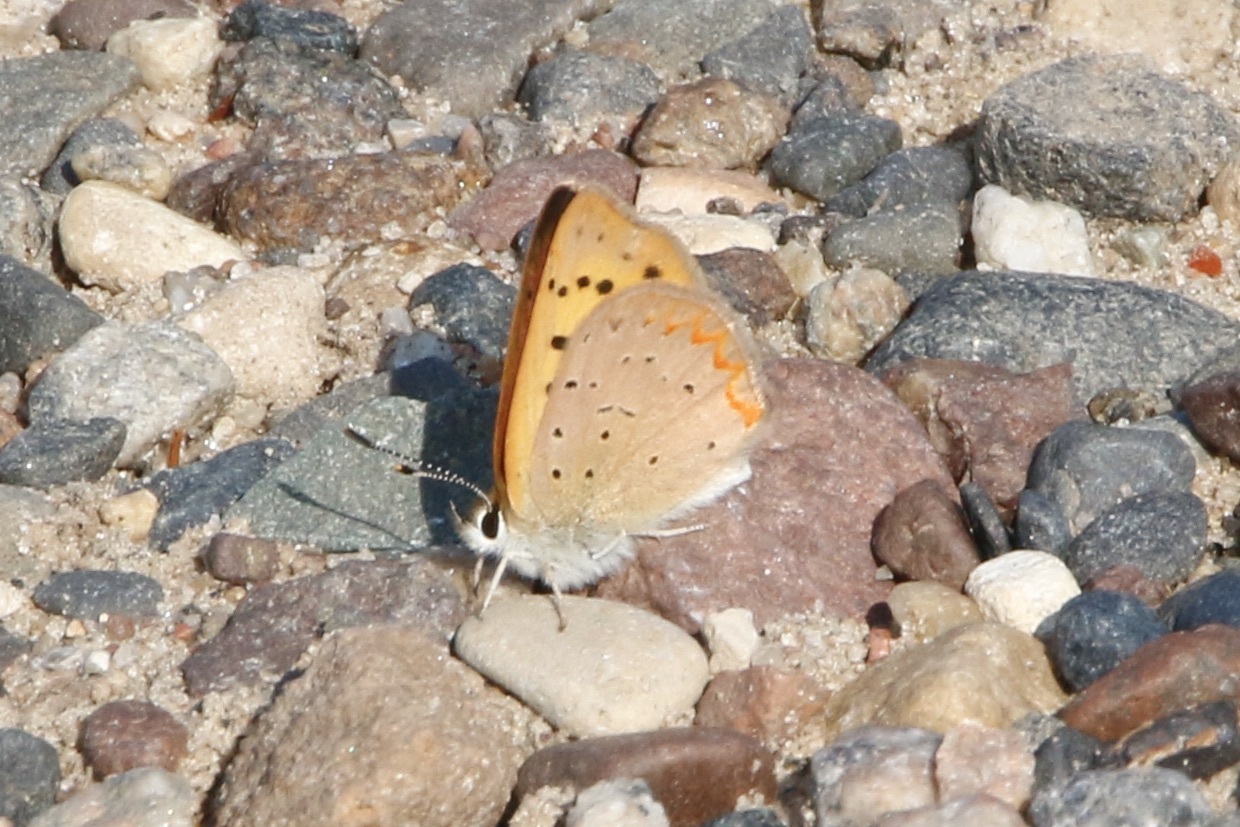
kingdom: Animalia
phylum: Arthropoda
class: Insecta
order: Lepidoptera
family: Lycaenidae
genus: Tharsalea
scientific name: Tharsalea helloides
